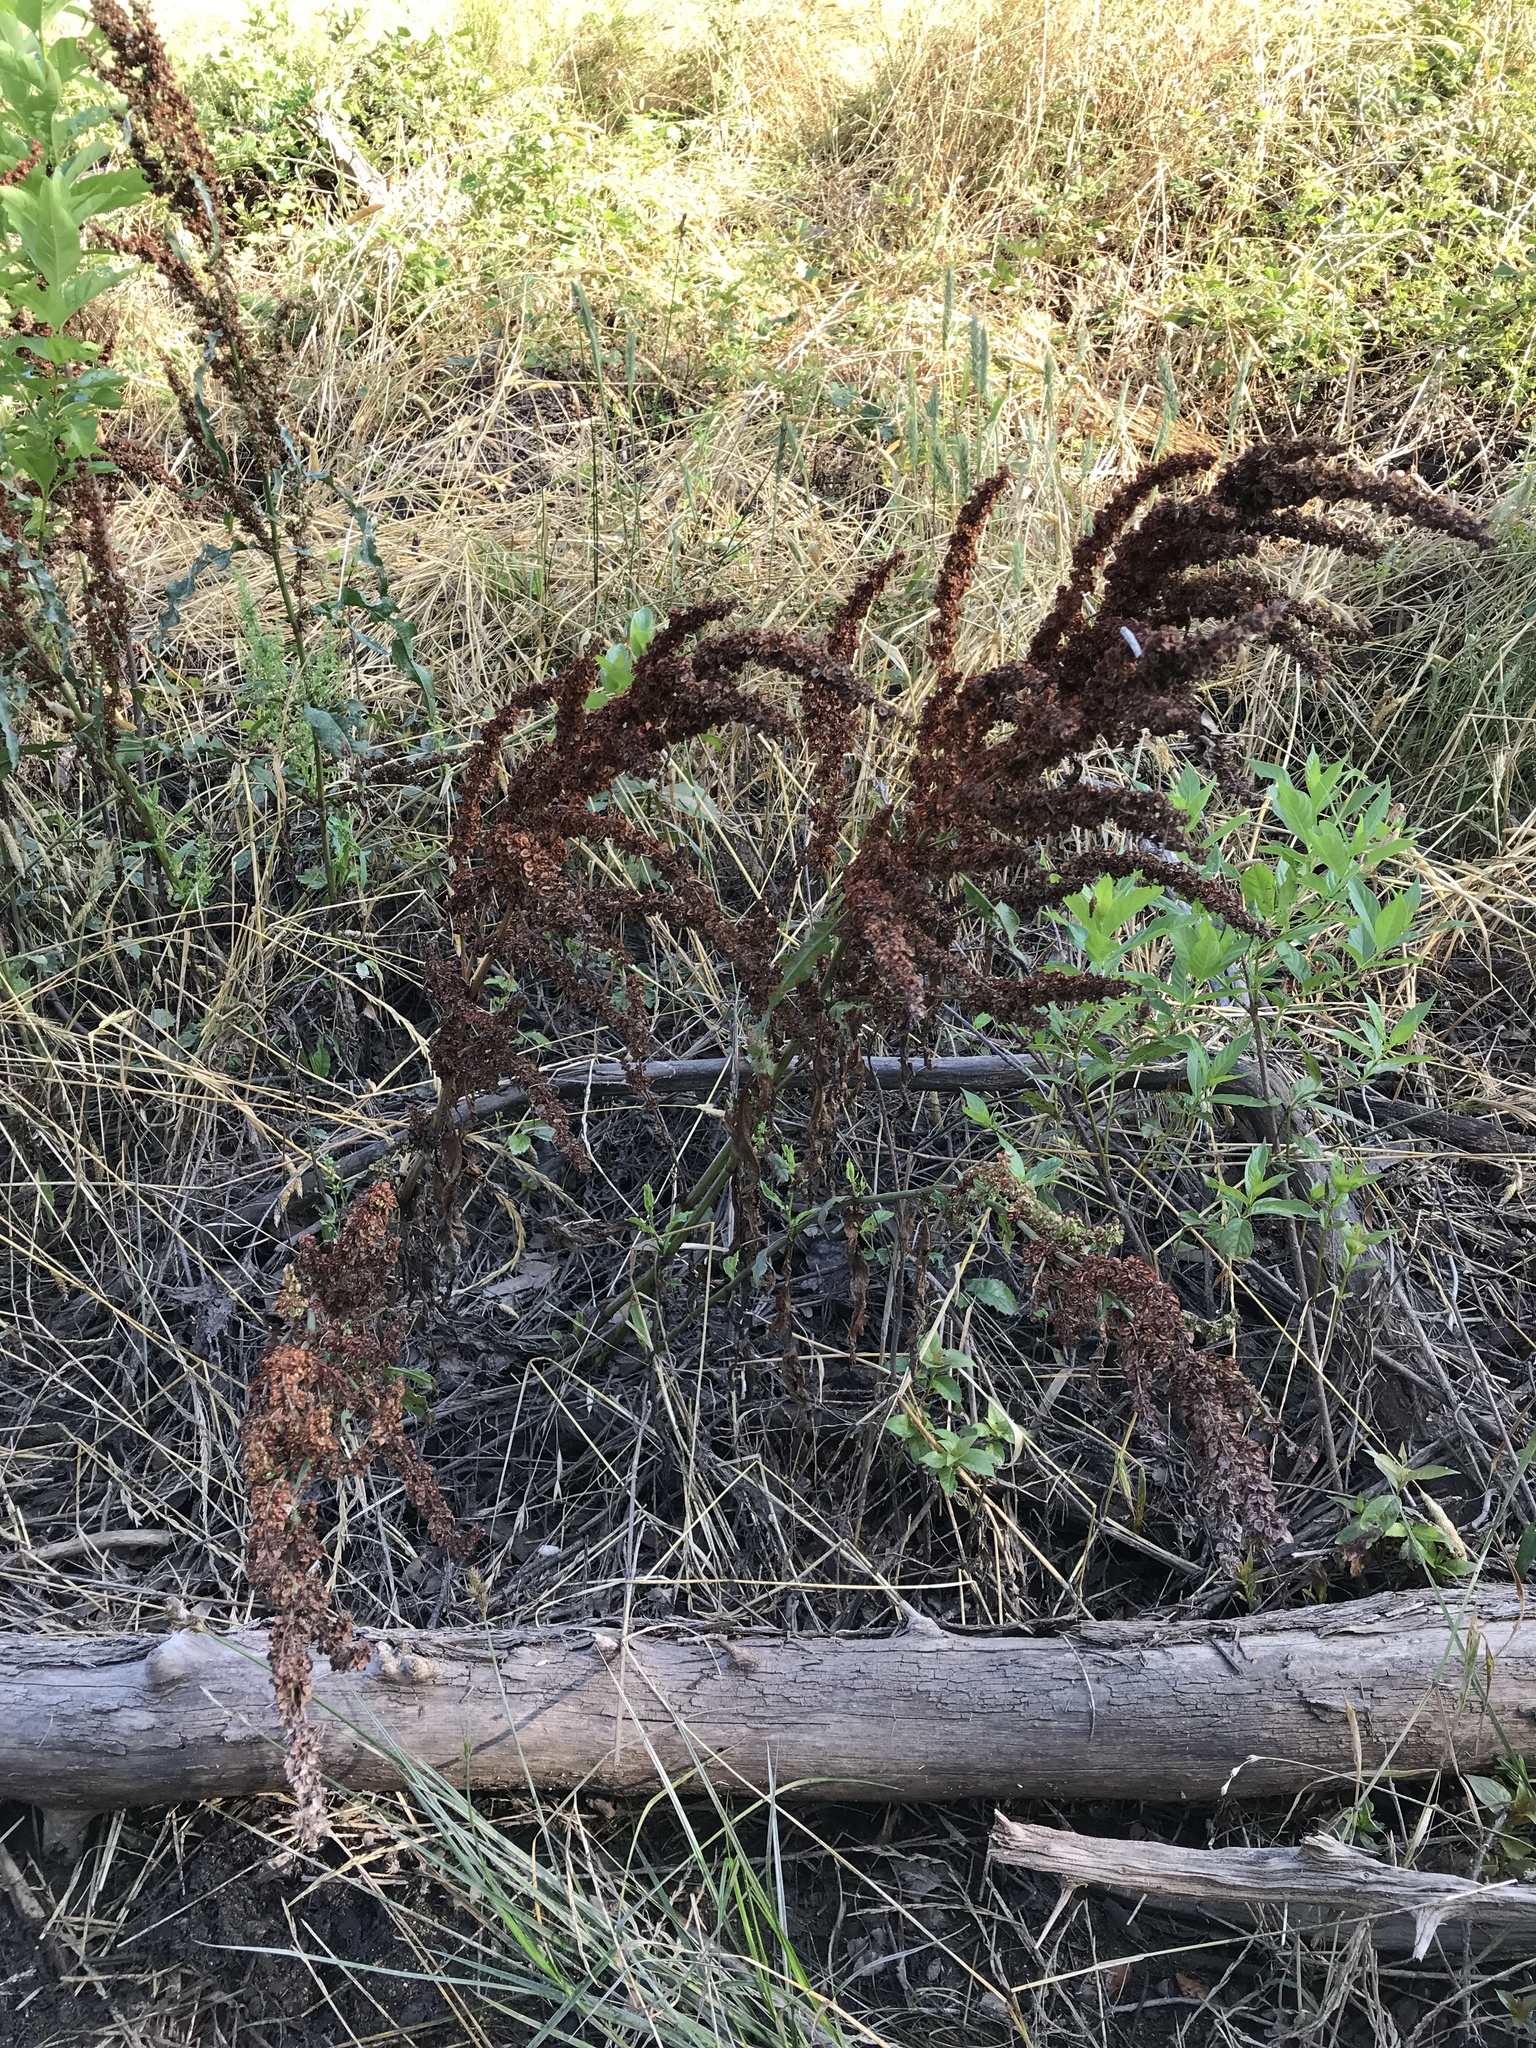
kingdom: Plantae
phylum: Tracheophyta
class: Magnoliopsida
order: Caryophyllales
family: Polygonaceae
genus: Rumex
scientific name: Rumex crispus
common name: Curled dock
